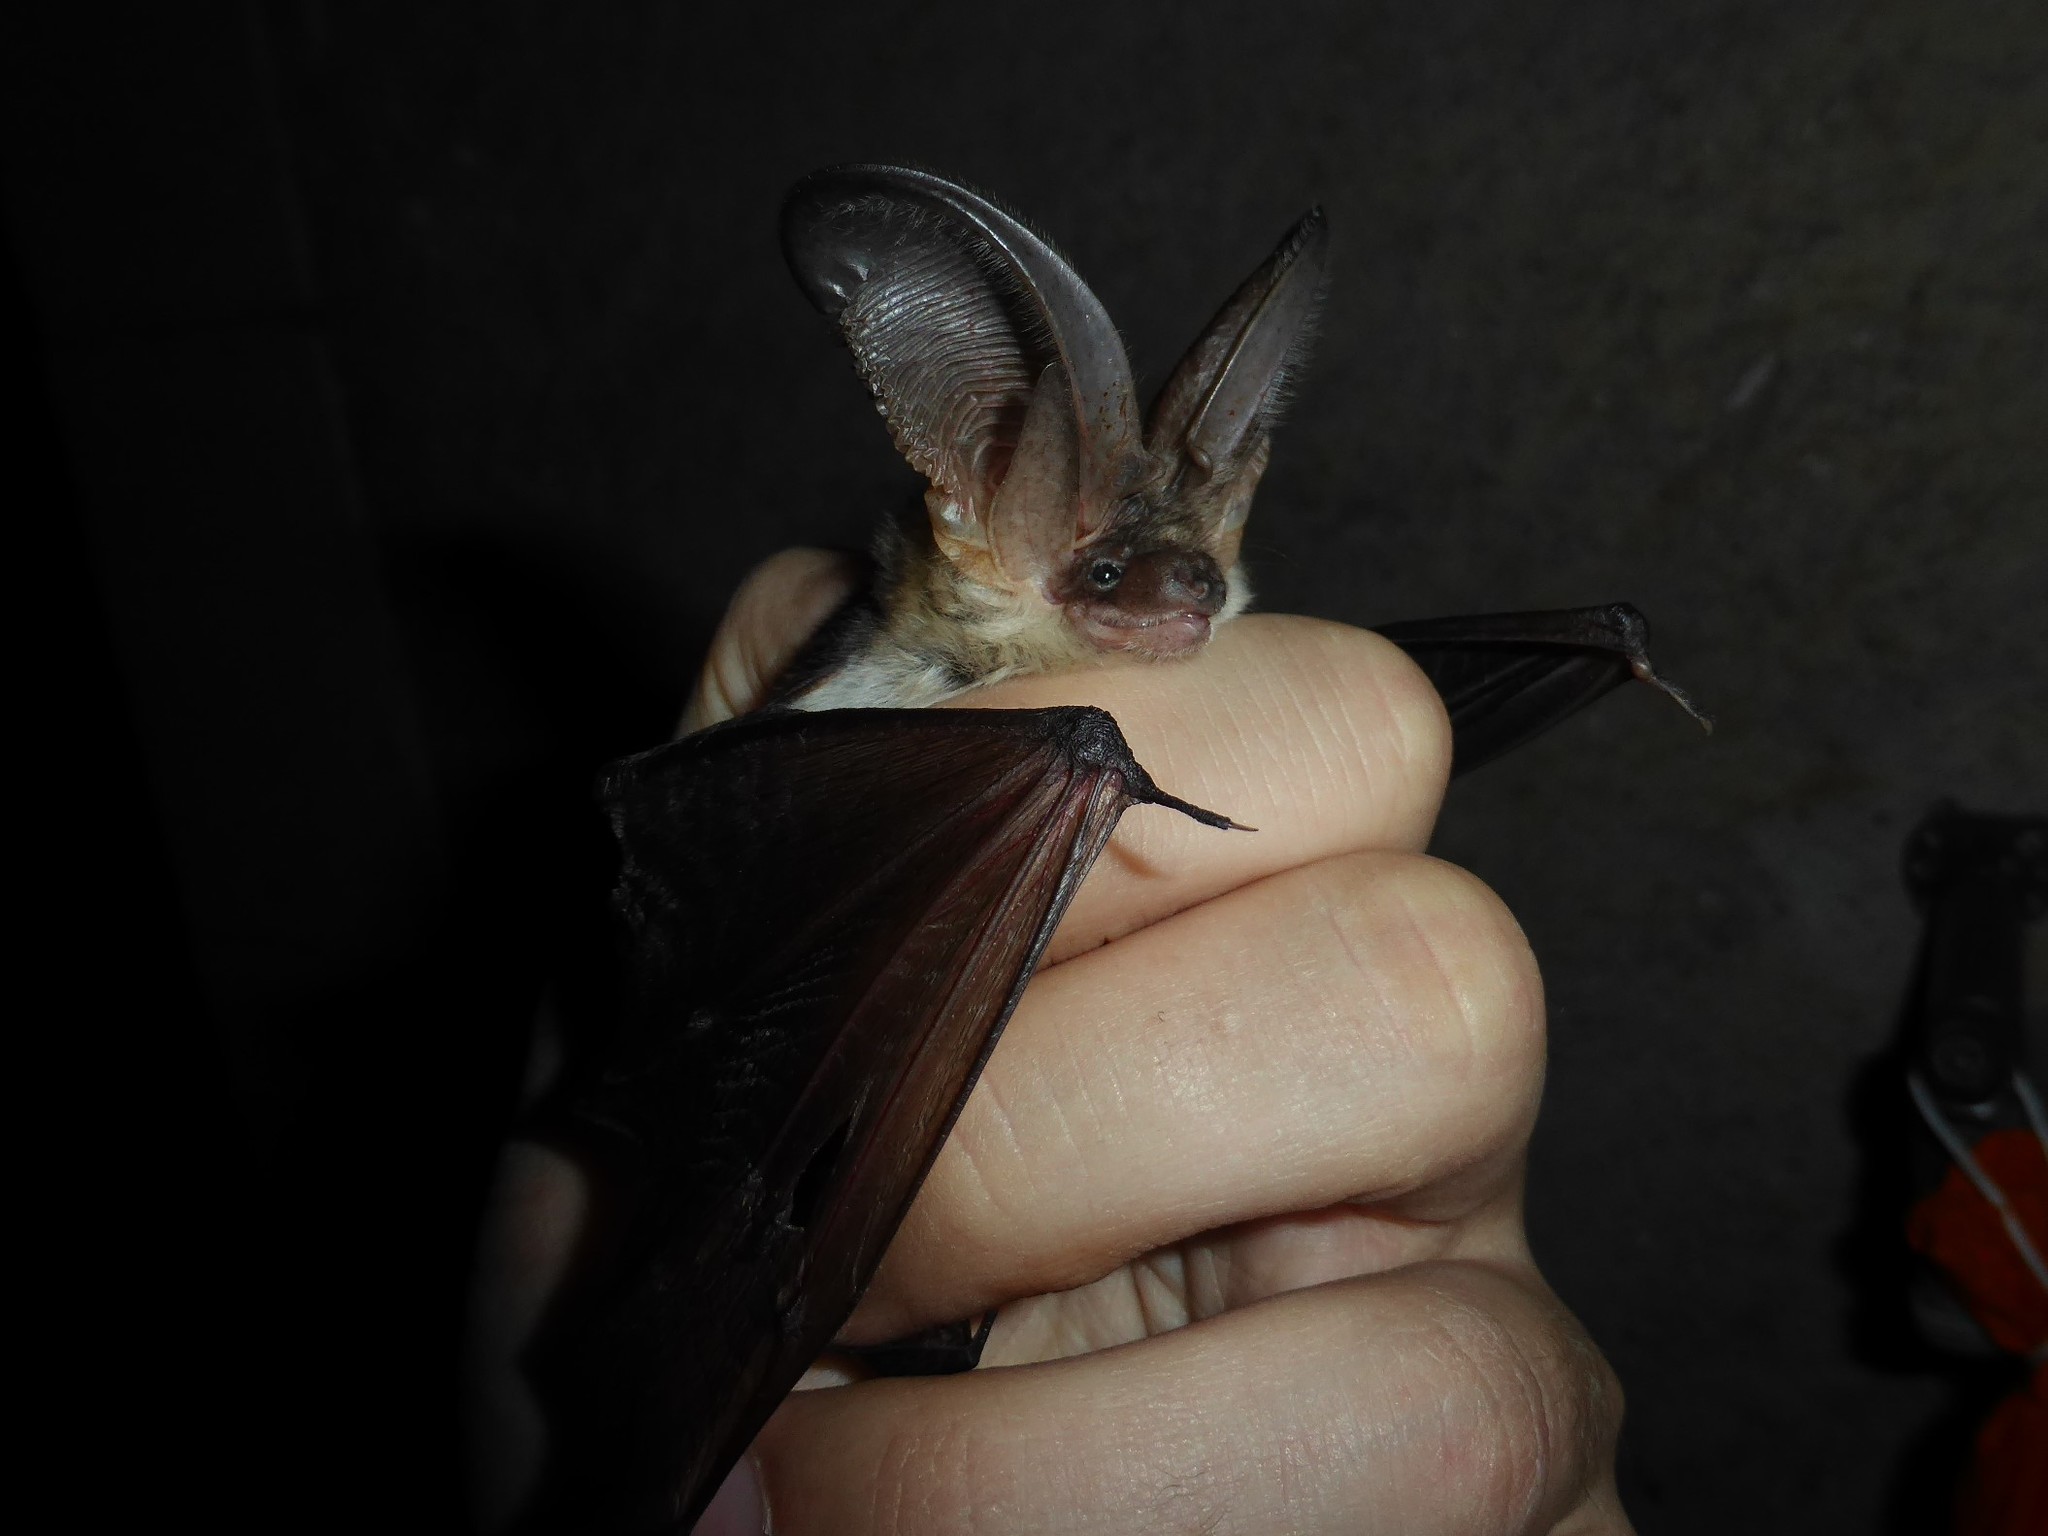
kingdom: Animalia
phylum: Chordata
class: Mammalia
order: Chiroptera
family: Vespertilionidae
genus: Plecotus
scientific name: Plecotus macrobullaris
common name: Mountain long-eared bat
